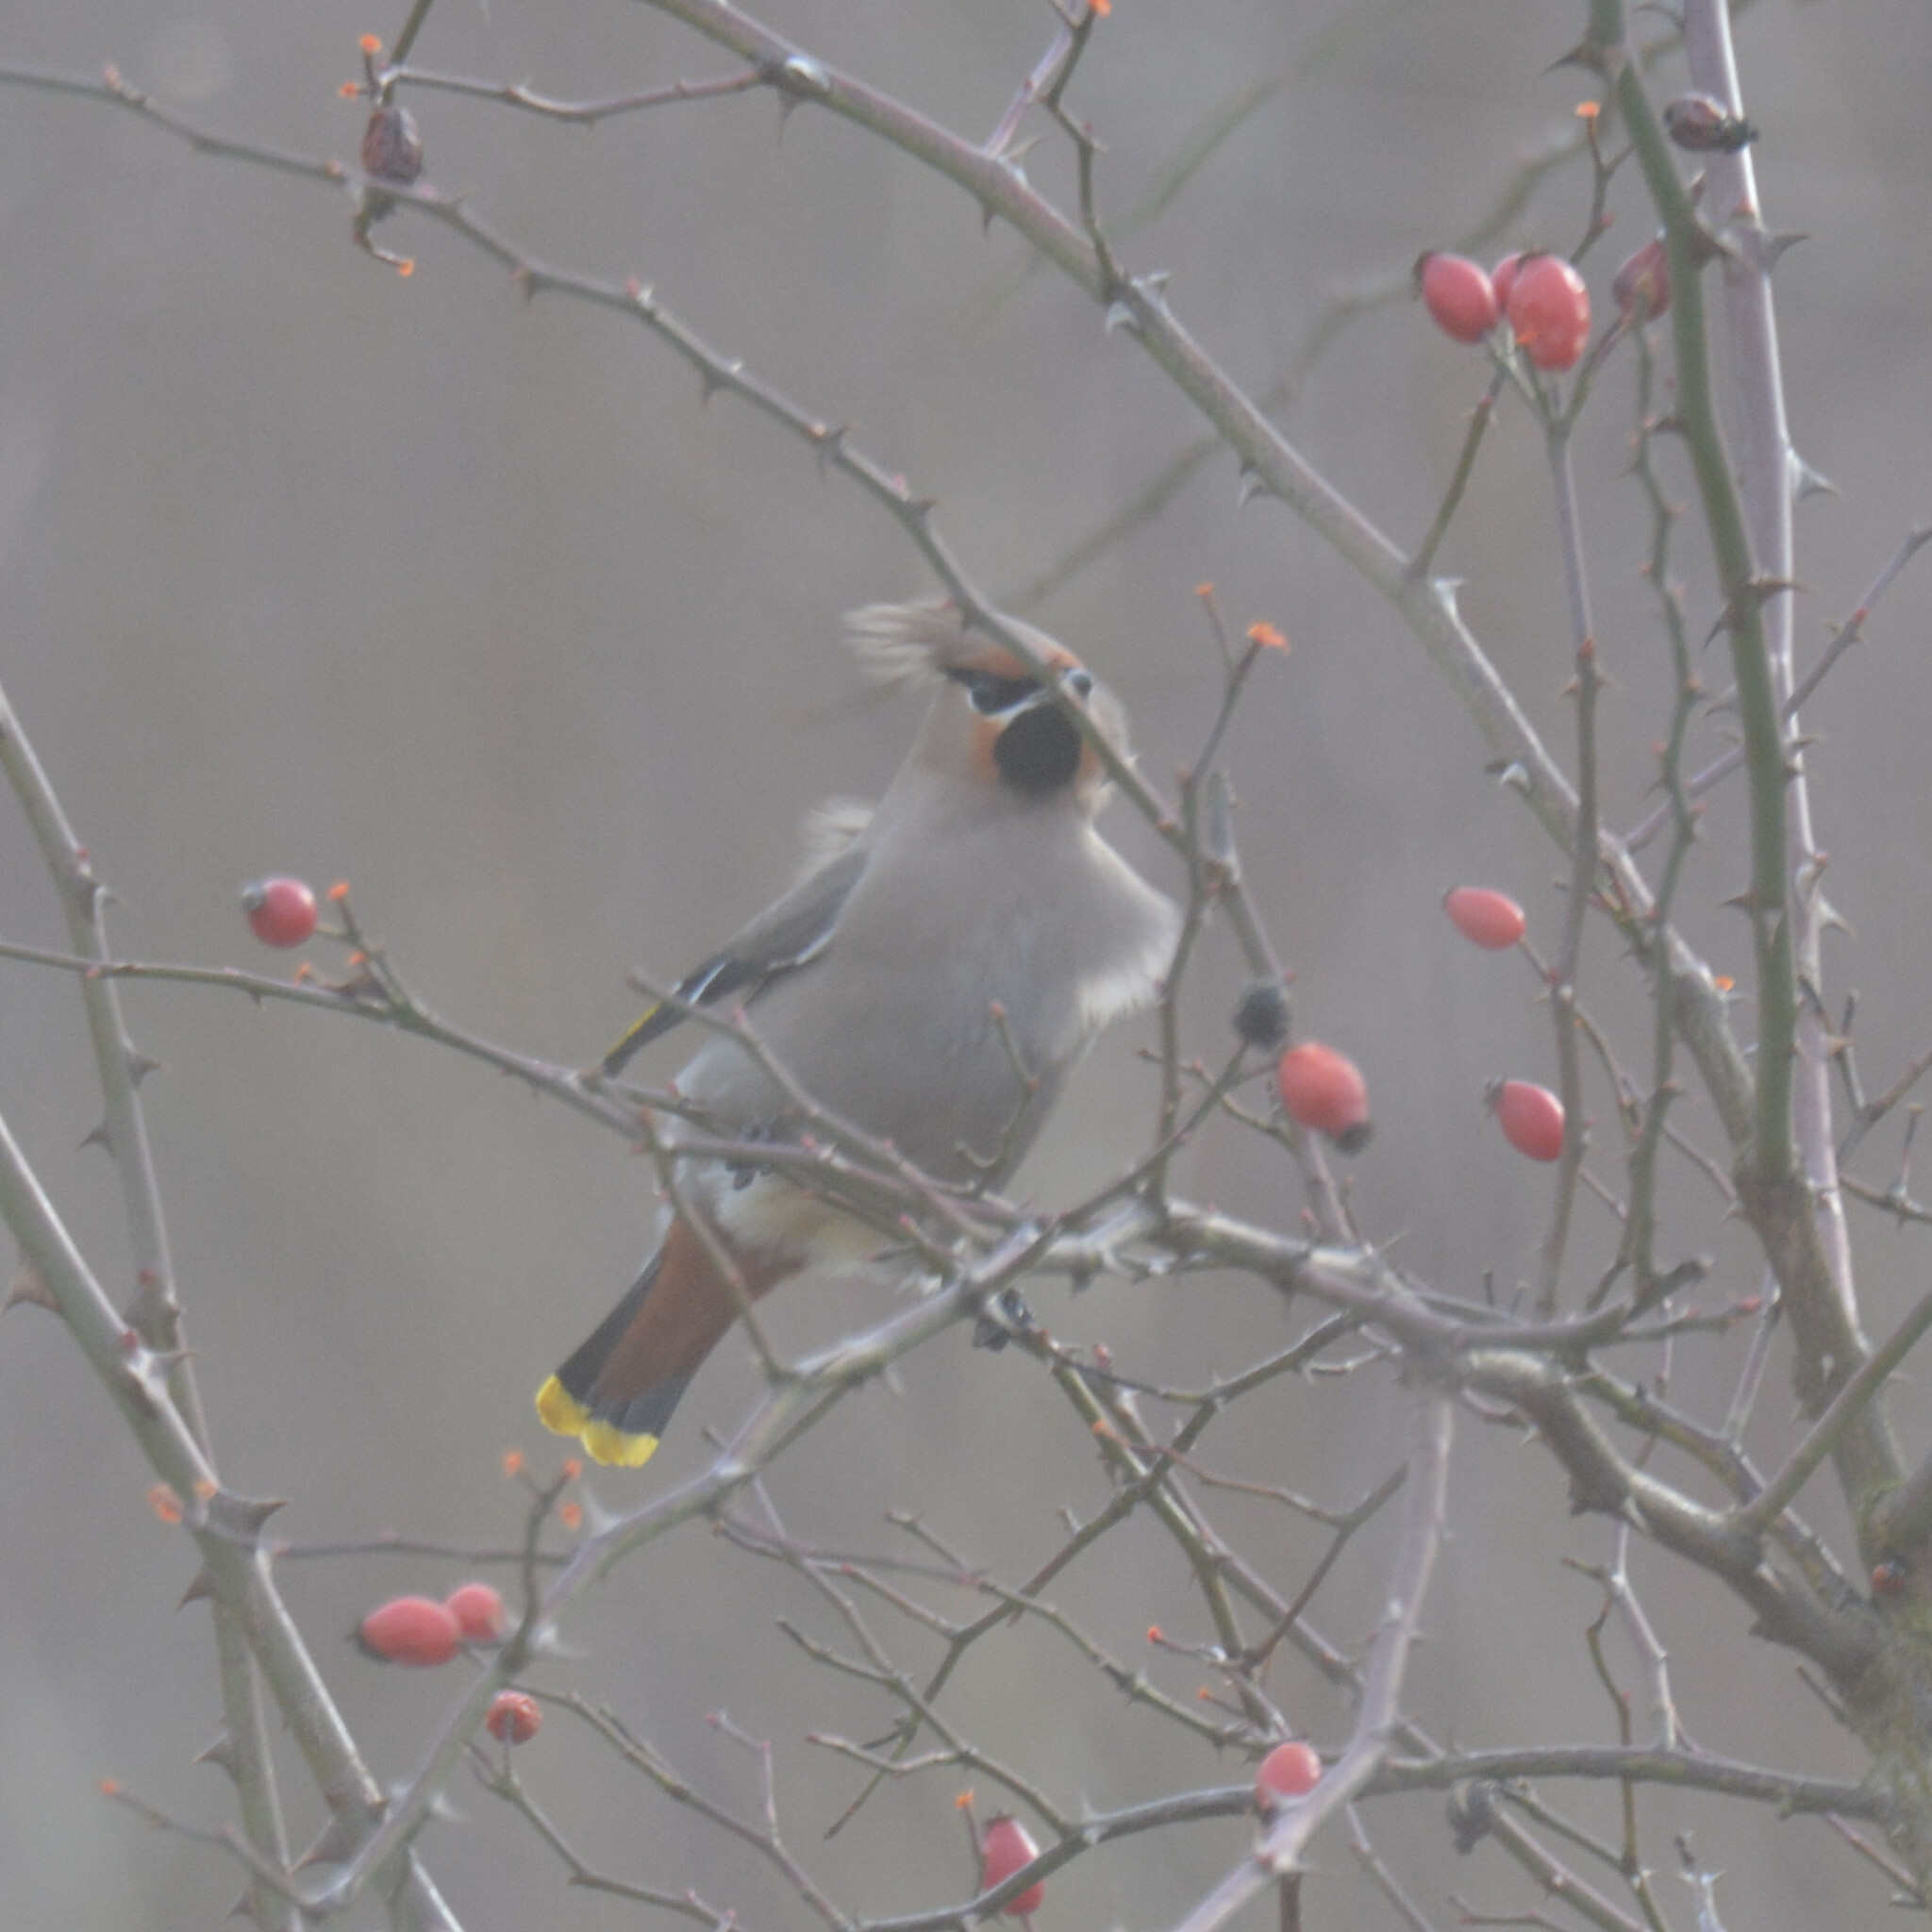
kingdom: Animalia
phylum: Chordata
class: Aves
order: Passeriformes
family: Bombycillidae
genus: Bombycilla
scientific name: Bombycilla garrulus
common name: Bohemian waxwing
